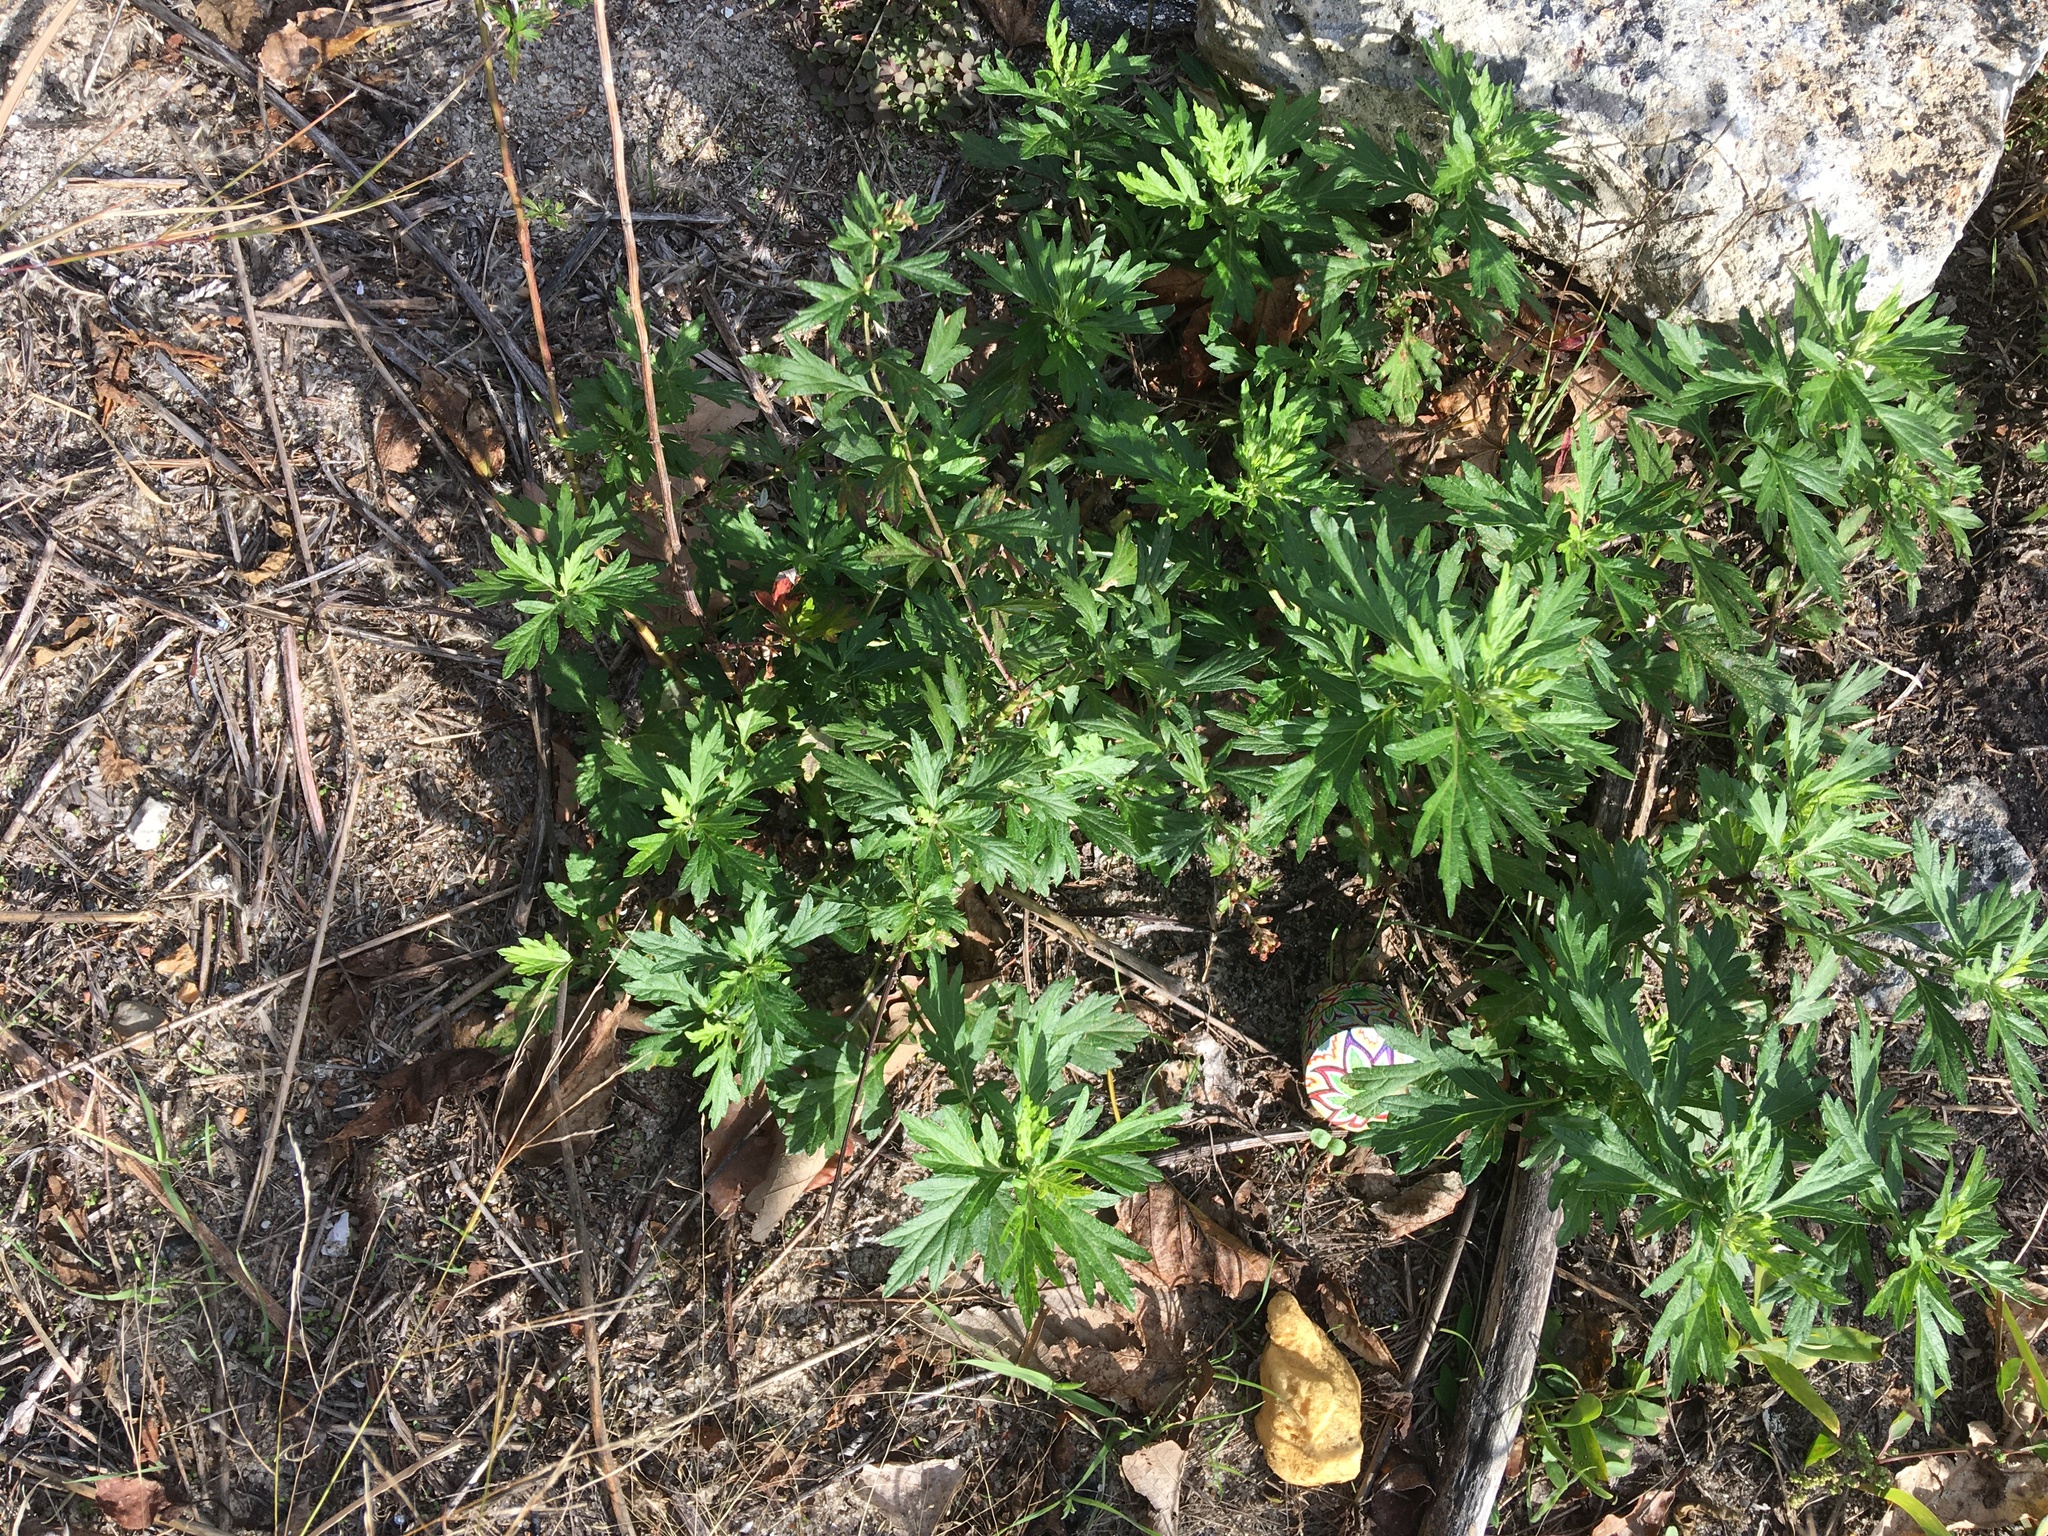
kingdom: Plantae
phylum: Tracheophyta
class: Magnoliopsida
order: Asterales
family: Asteraceae
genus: Artemisia
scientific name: Artemisia vulgaris
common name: Mugwort
